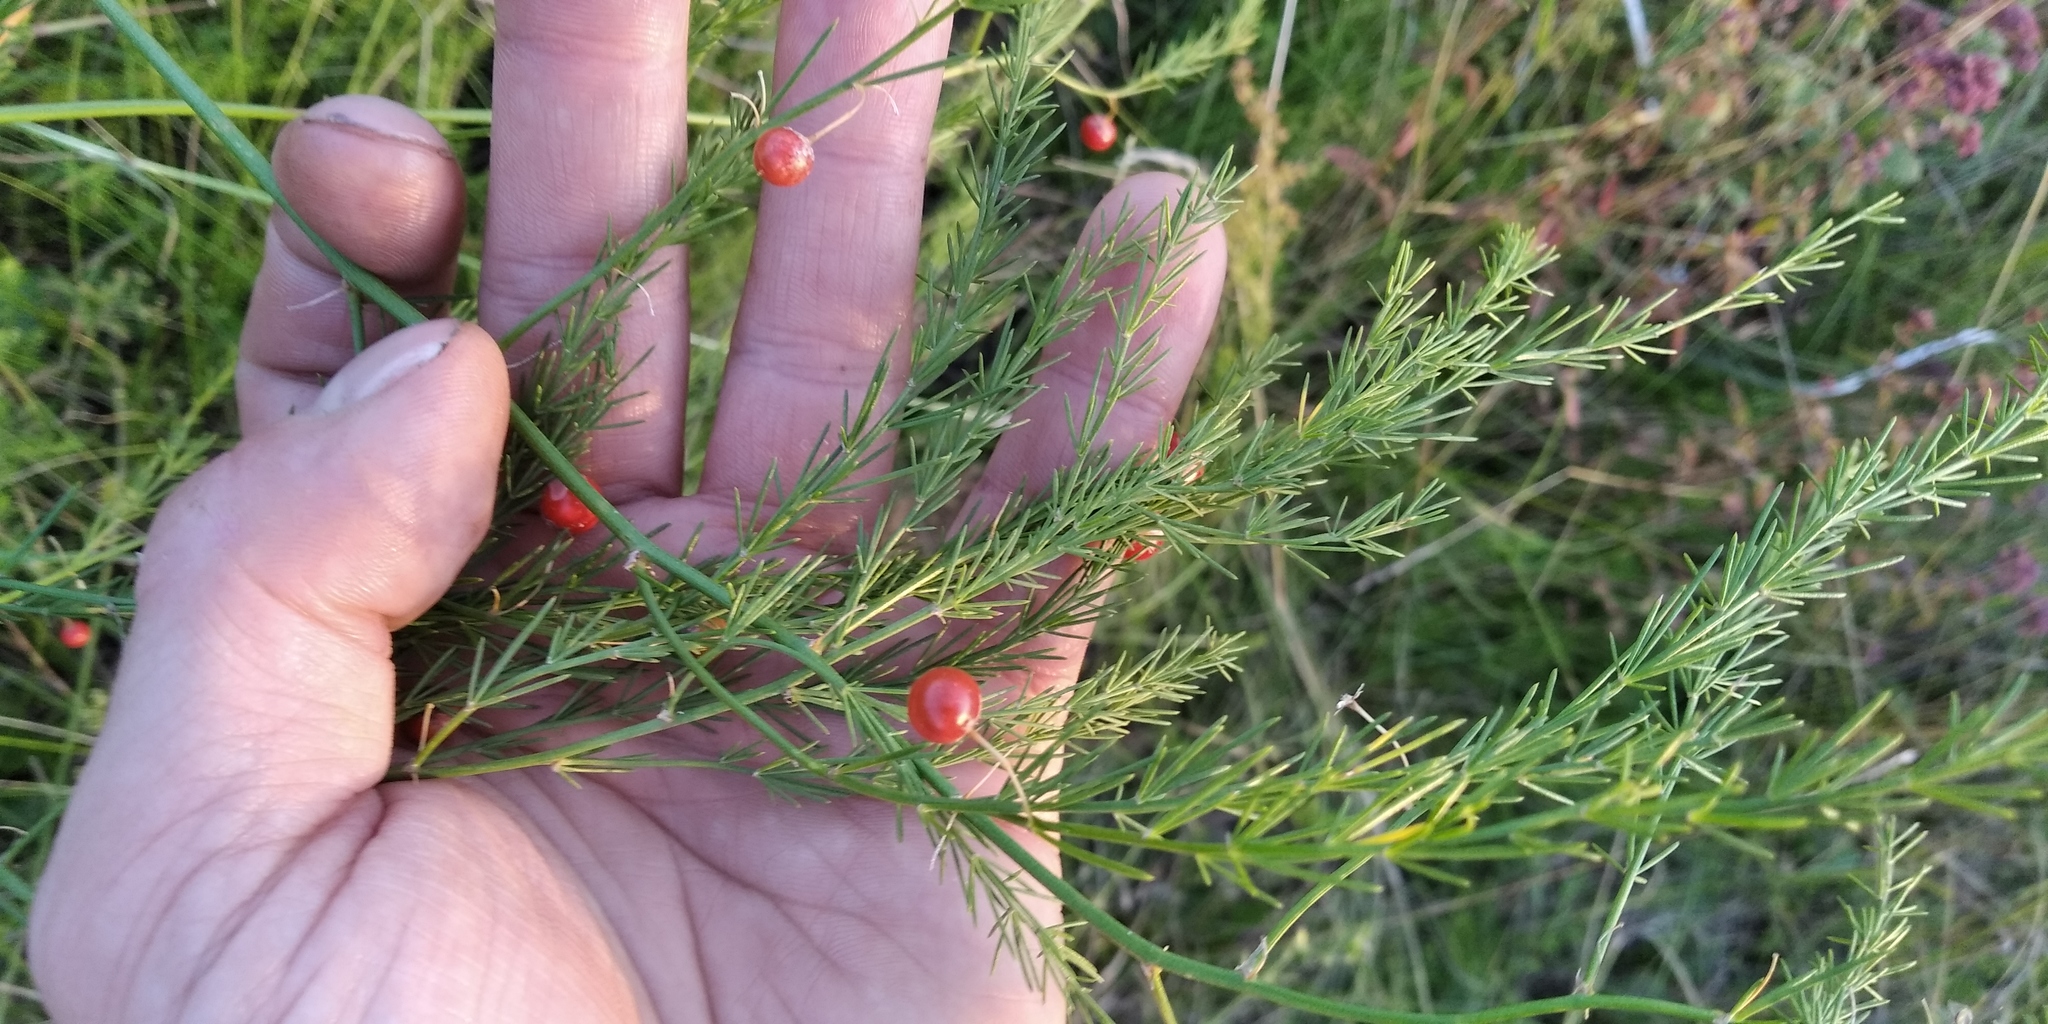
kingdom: Plantae
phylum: Tracheophyta
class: Liliopsida
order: Asparagales
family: Asparagaceae
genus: Asparagus
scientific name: Asparagus officinalis
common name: Garden asparagus
